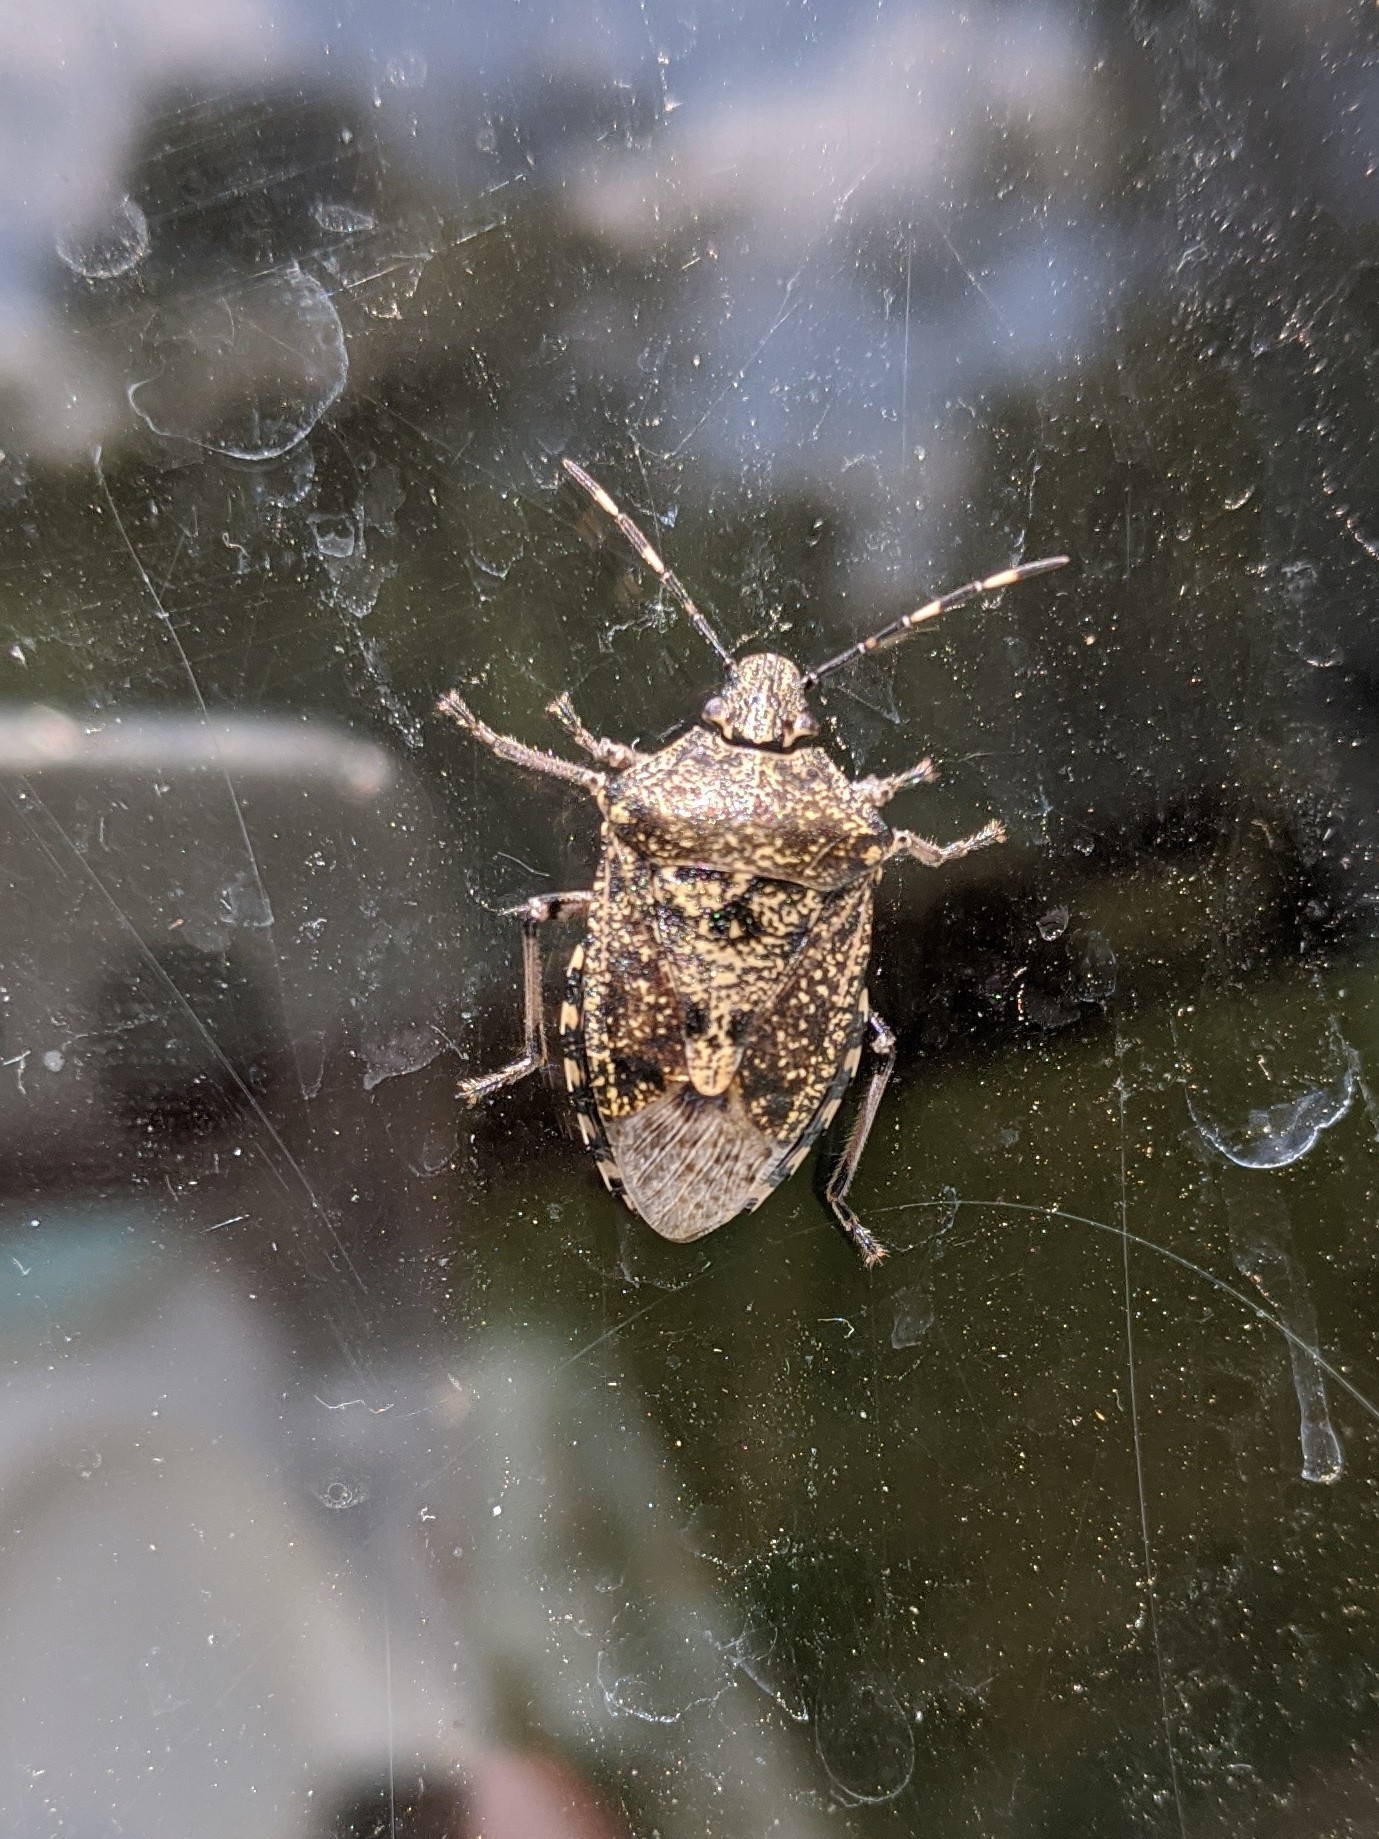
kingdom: Animalia
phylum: Arthropoda
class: Insecta
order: Hemiptera
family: Pentatomidae
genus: Rhaphigaster
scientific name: Rhaphigaster nebulosa
